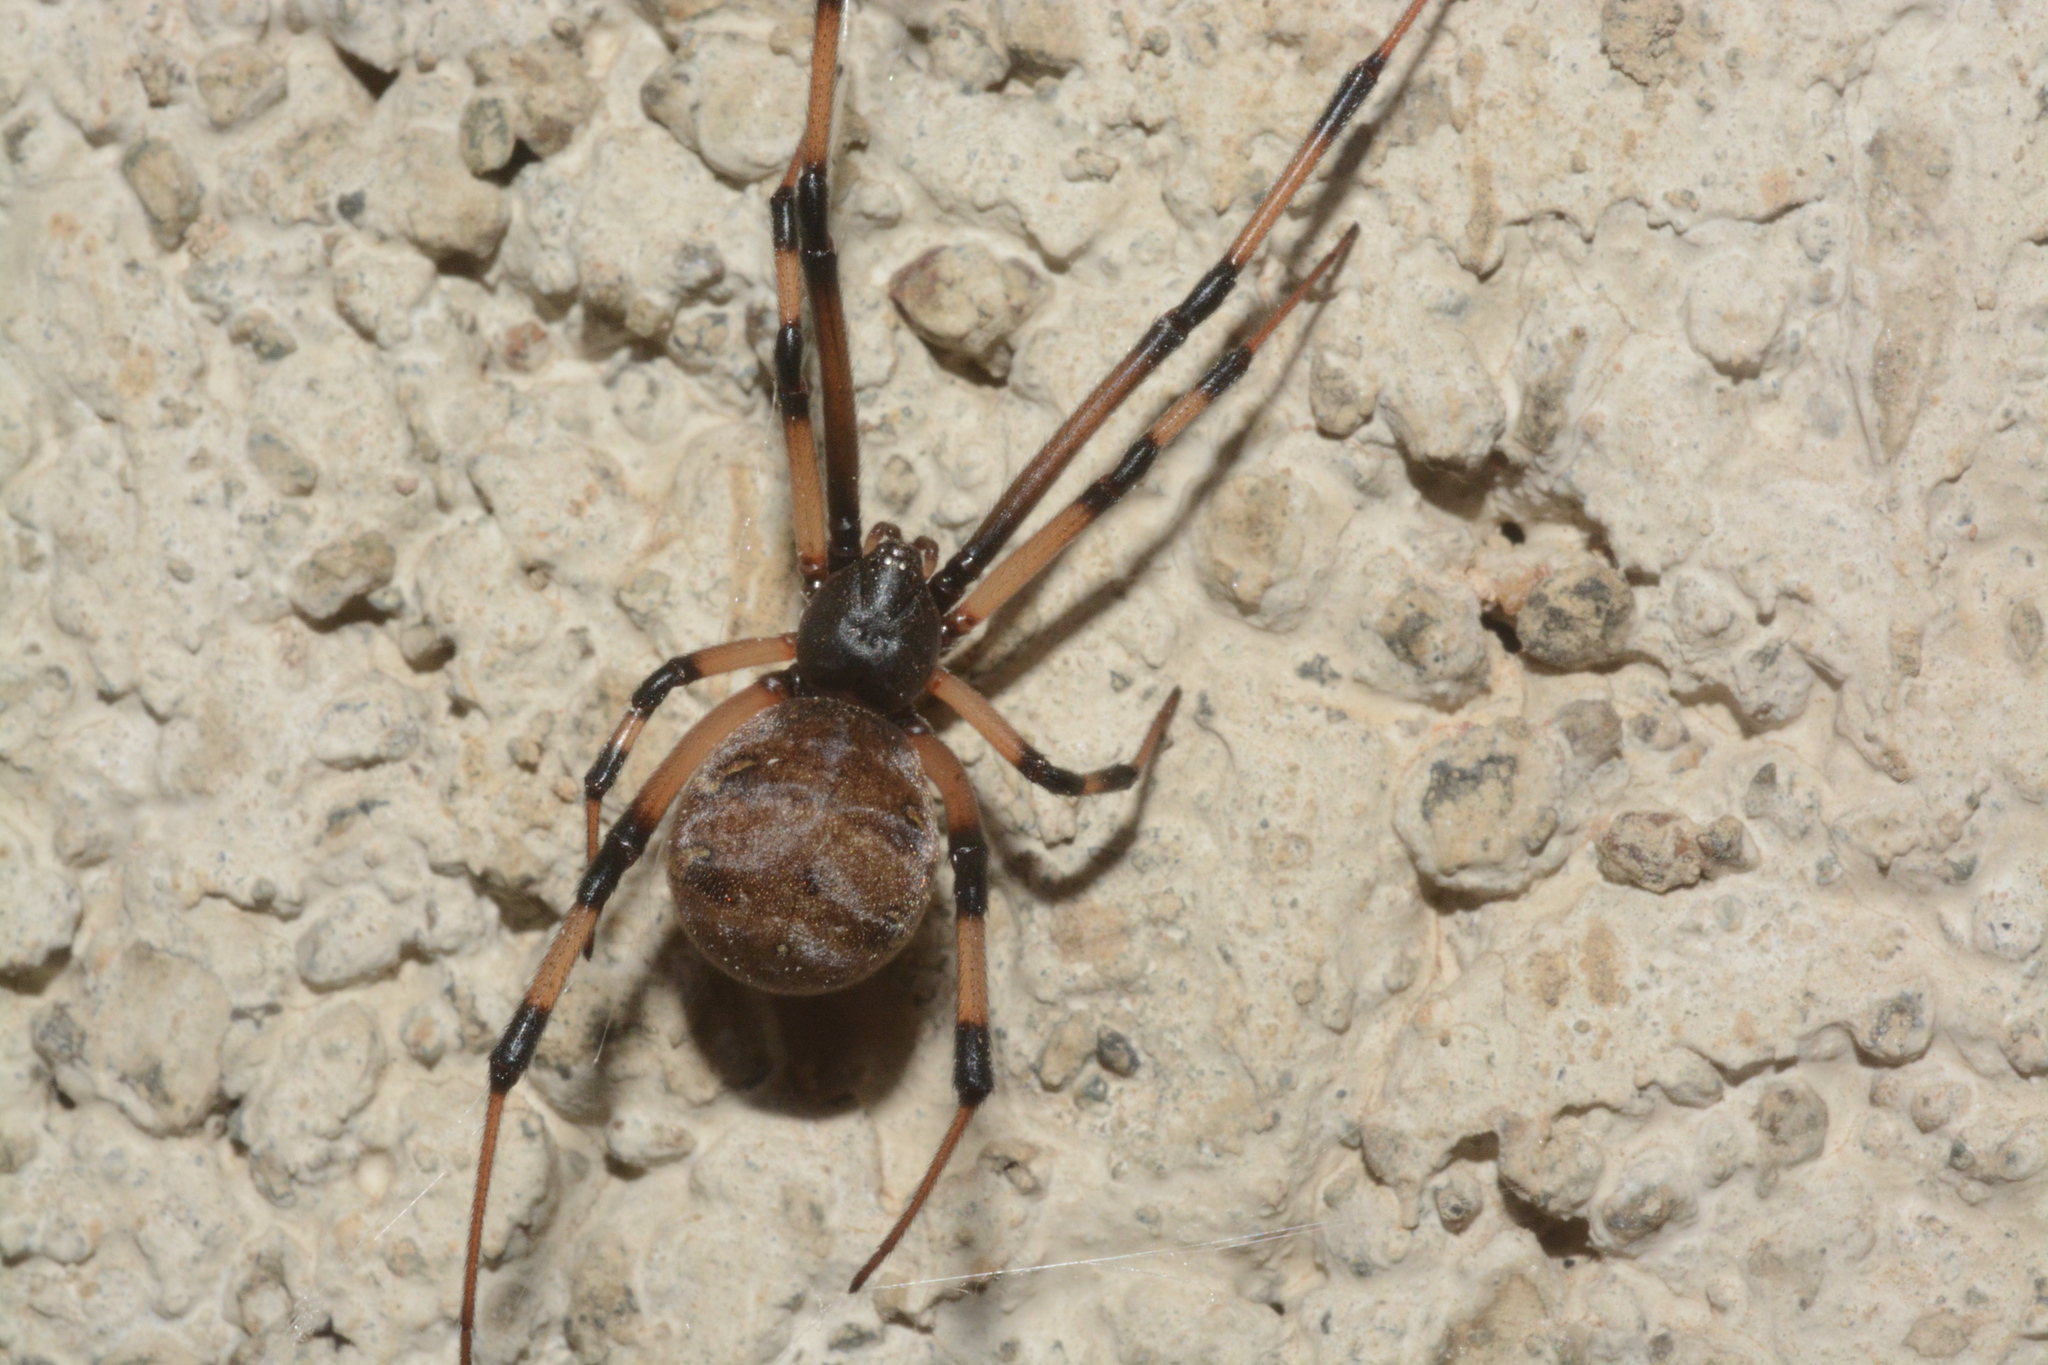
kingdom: Animalia
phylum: Arthropoda
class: Arachnida
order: Araneae
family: Theridiidae
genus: Latrodectus
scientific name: Latrodectus geometricus
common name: Brown widow spider
